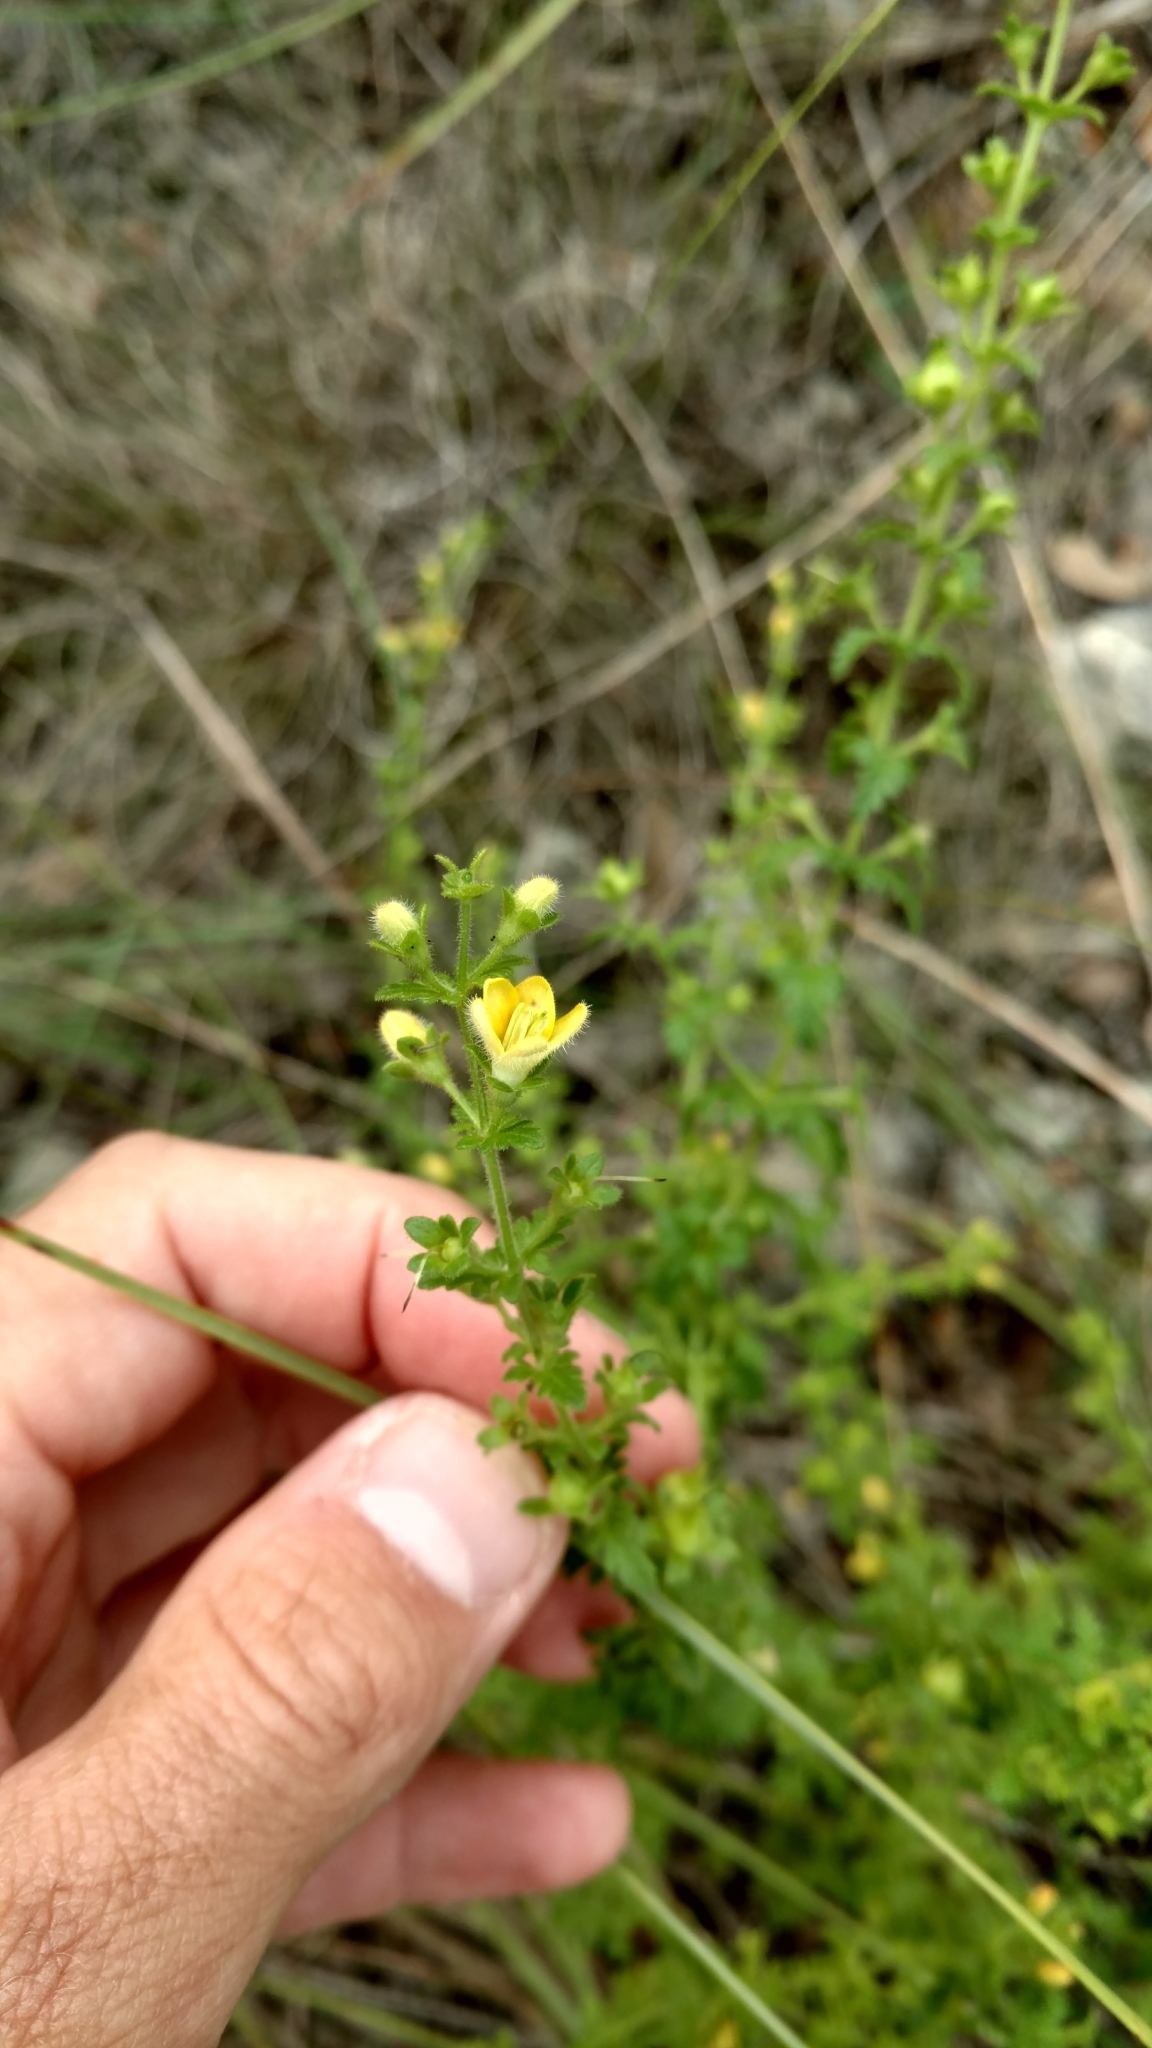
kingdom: Plantae
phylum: Tracheophyta
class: Magnoliopsida
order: Lamiales
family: Orobanchaceae
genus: Seymeria
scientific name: Seymeria bipinnatisecta
